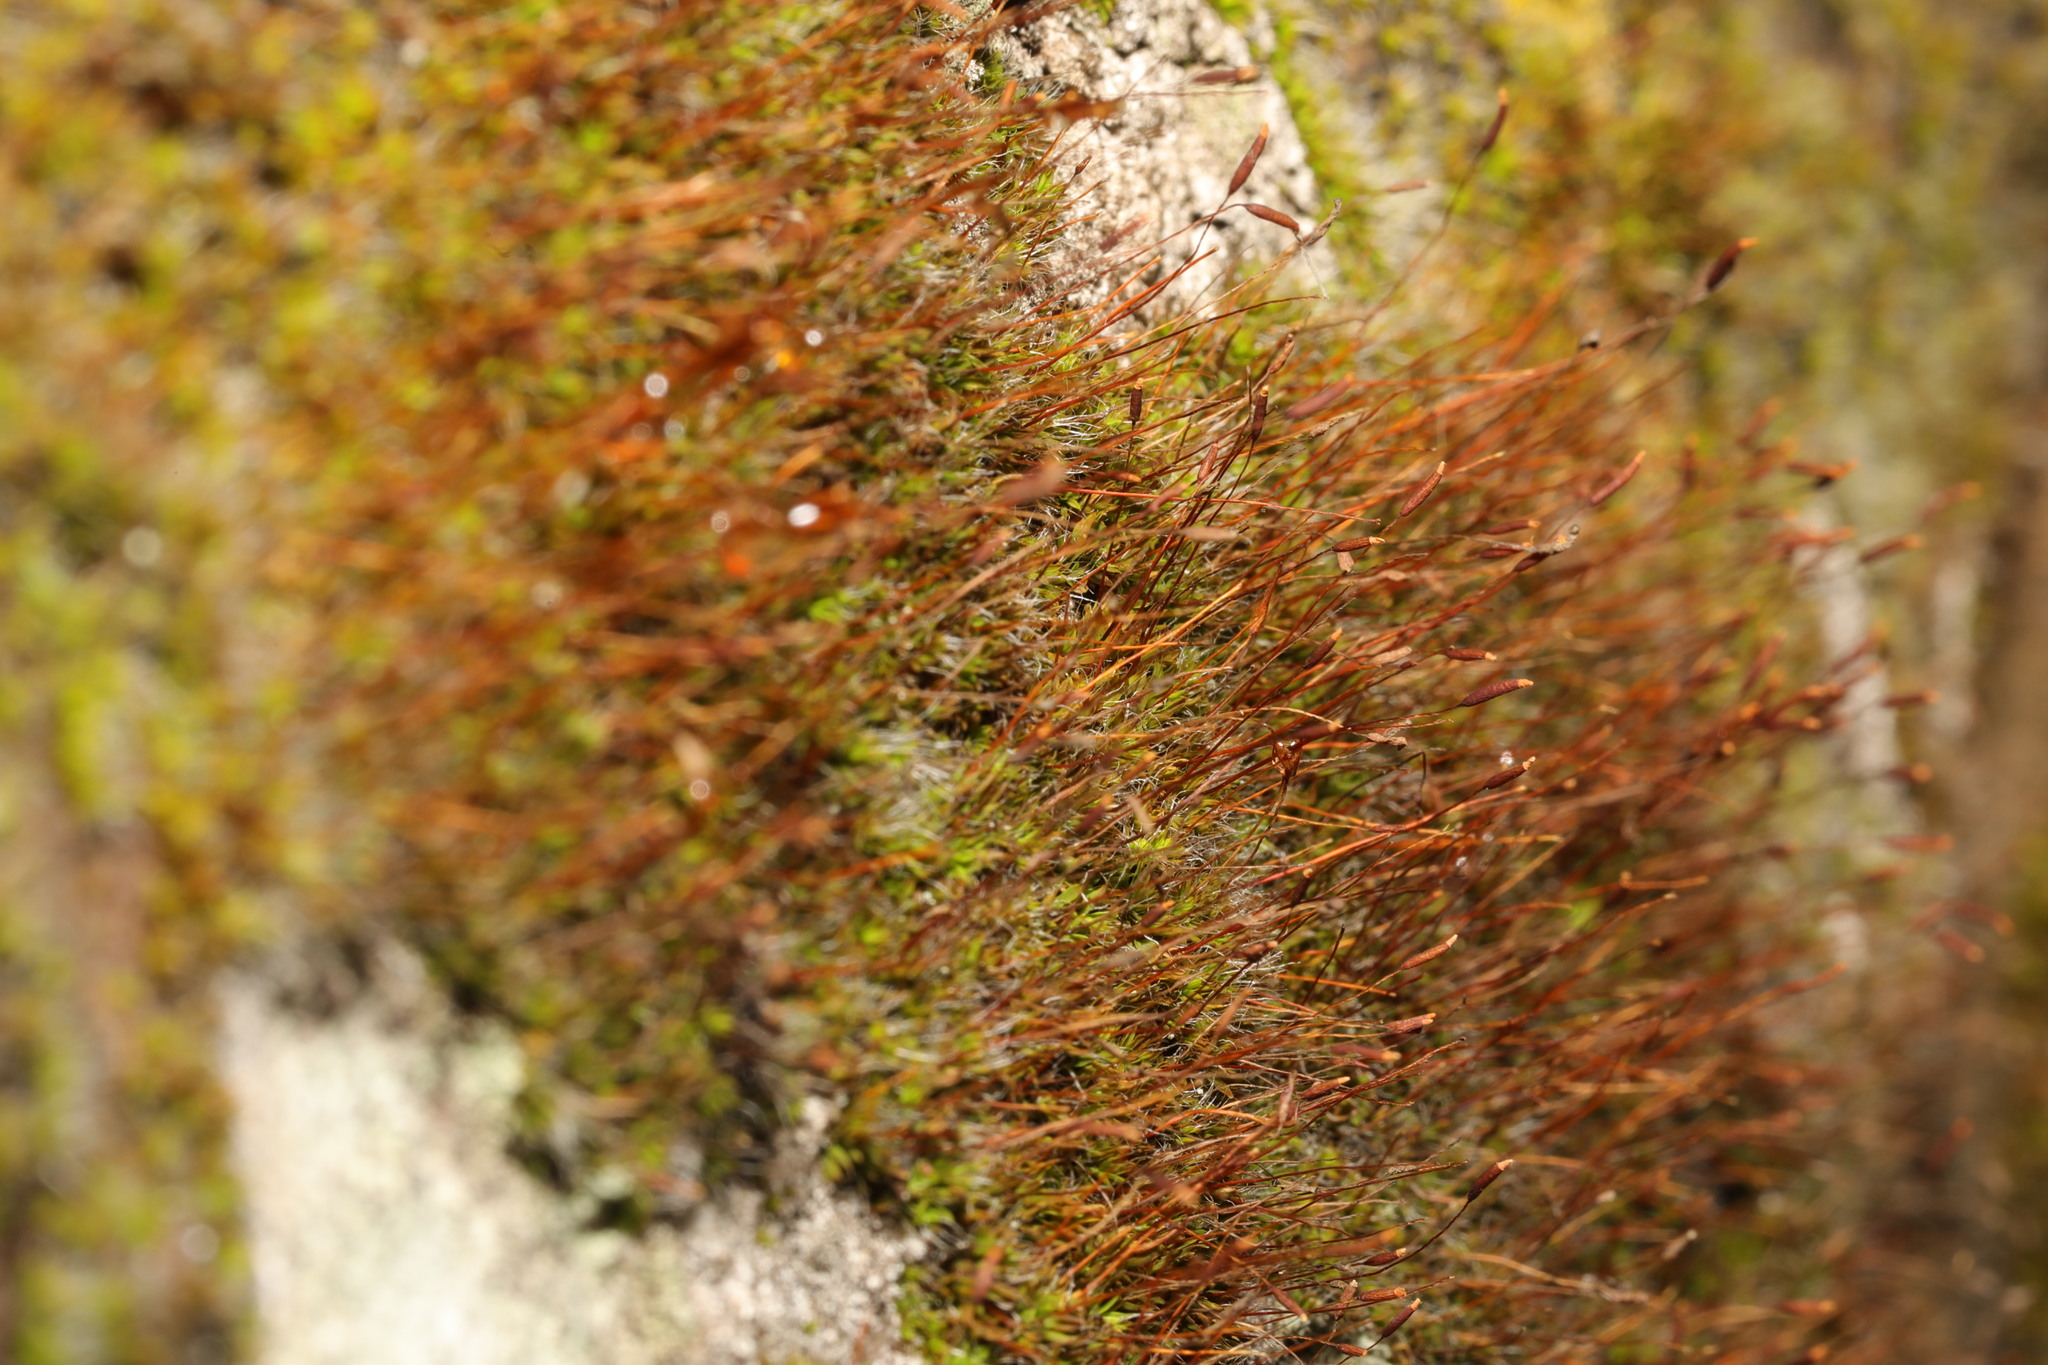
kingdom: Plantae
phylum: Bryophyta
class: Bryopsida
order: Pottiales
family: Pottiaceae
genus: Tortula
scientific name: Tortula muralis
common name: Wall screw-moss
